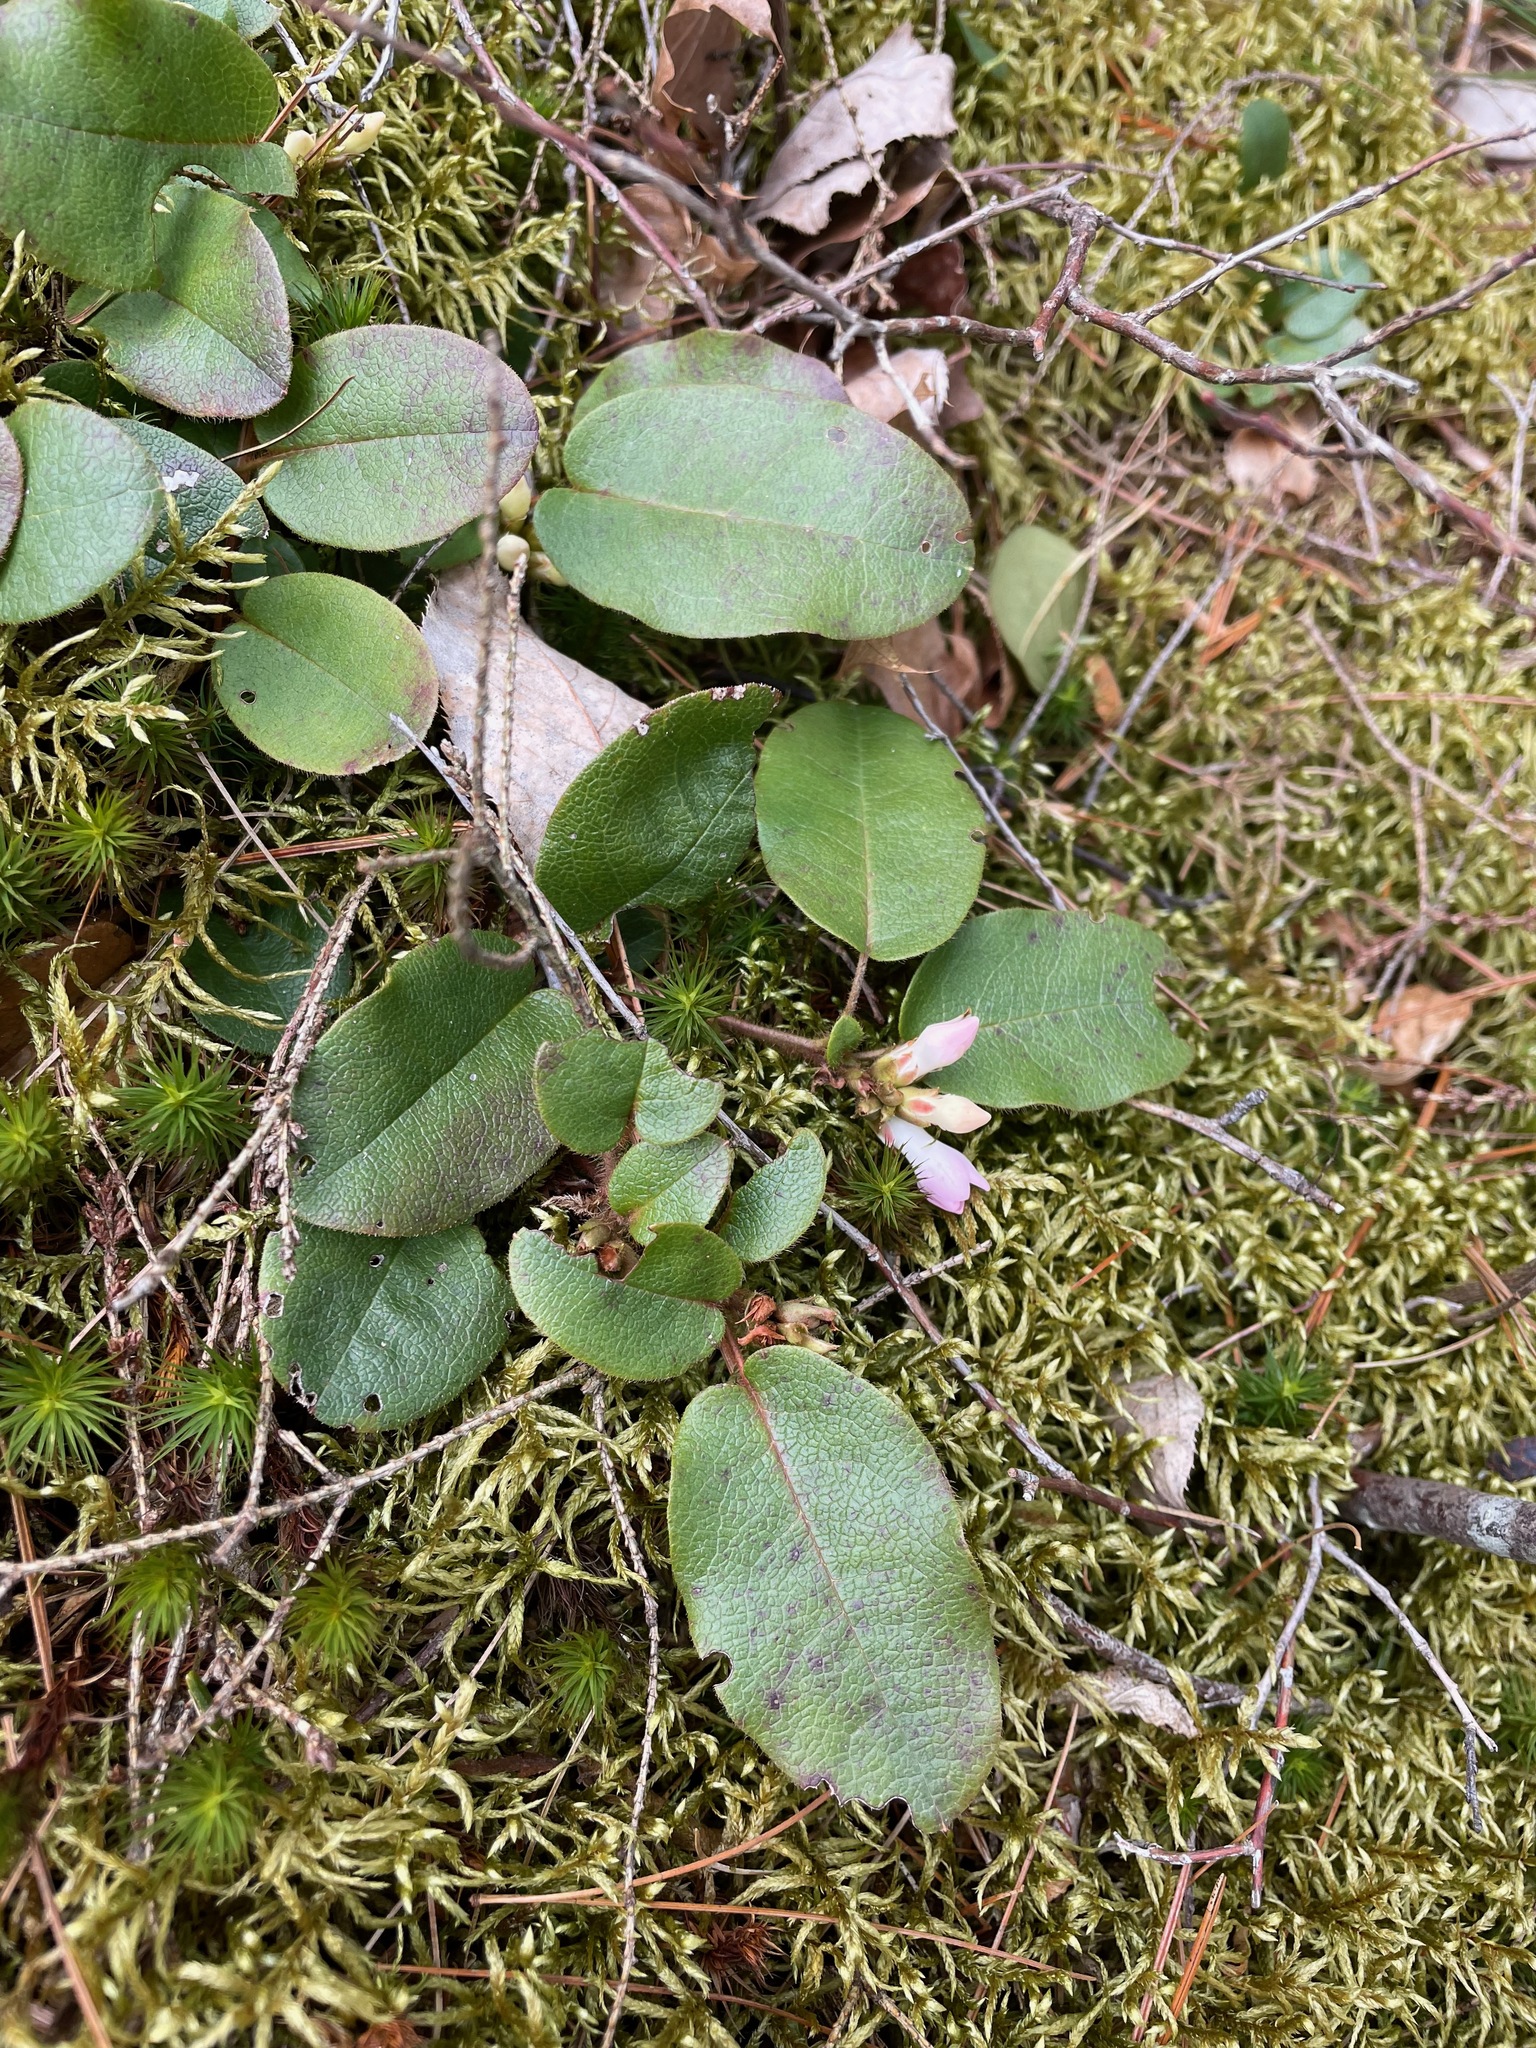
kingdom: Plantae
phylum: Tracheophyta
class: Magnoliopsida
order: Ericales
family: Ericaceae
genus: Epigaea
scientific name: Epigaea repens
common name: Gravelroot
